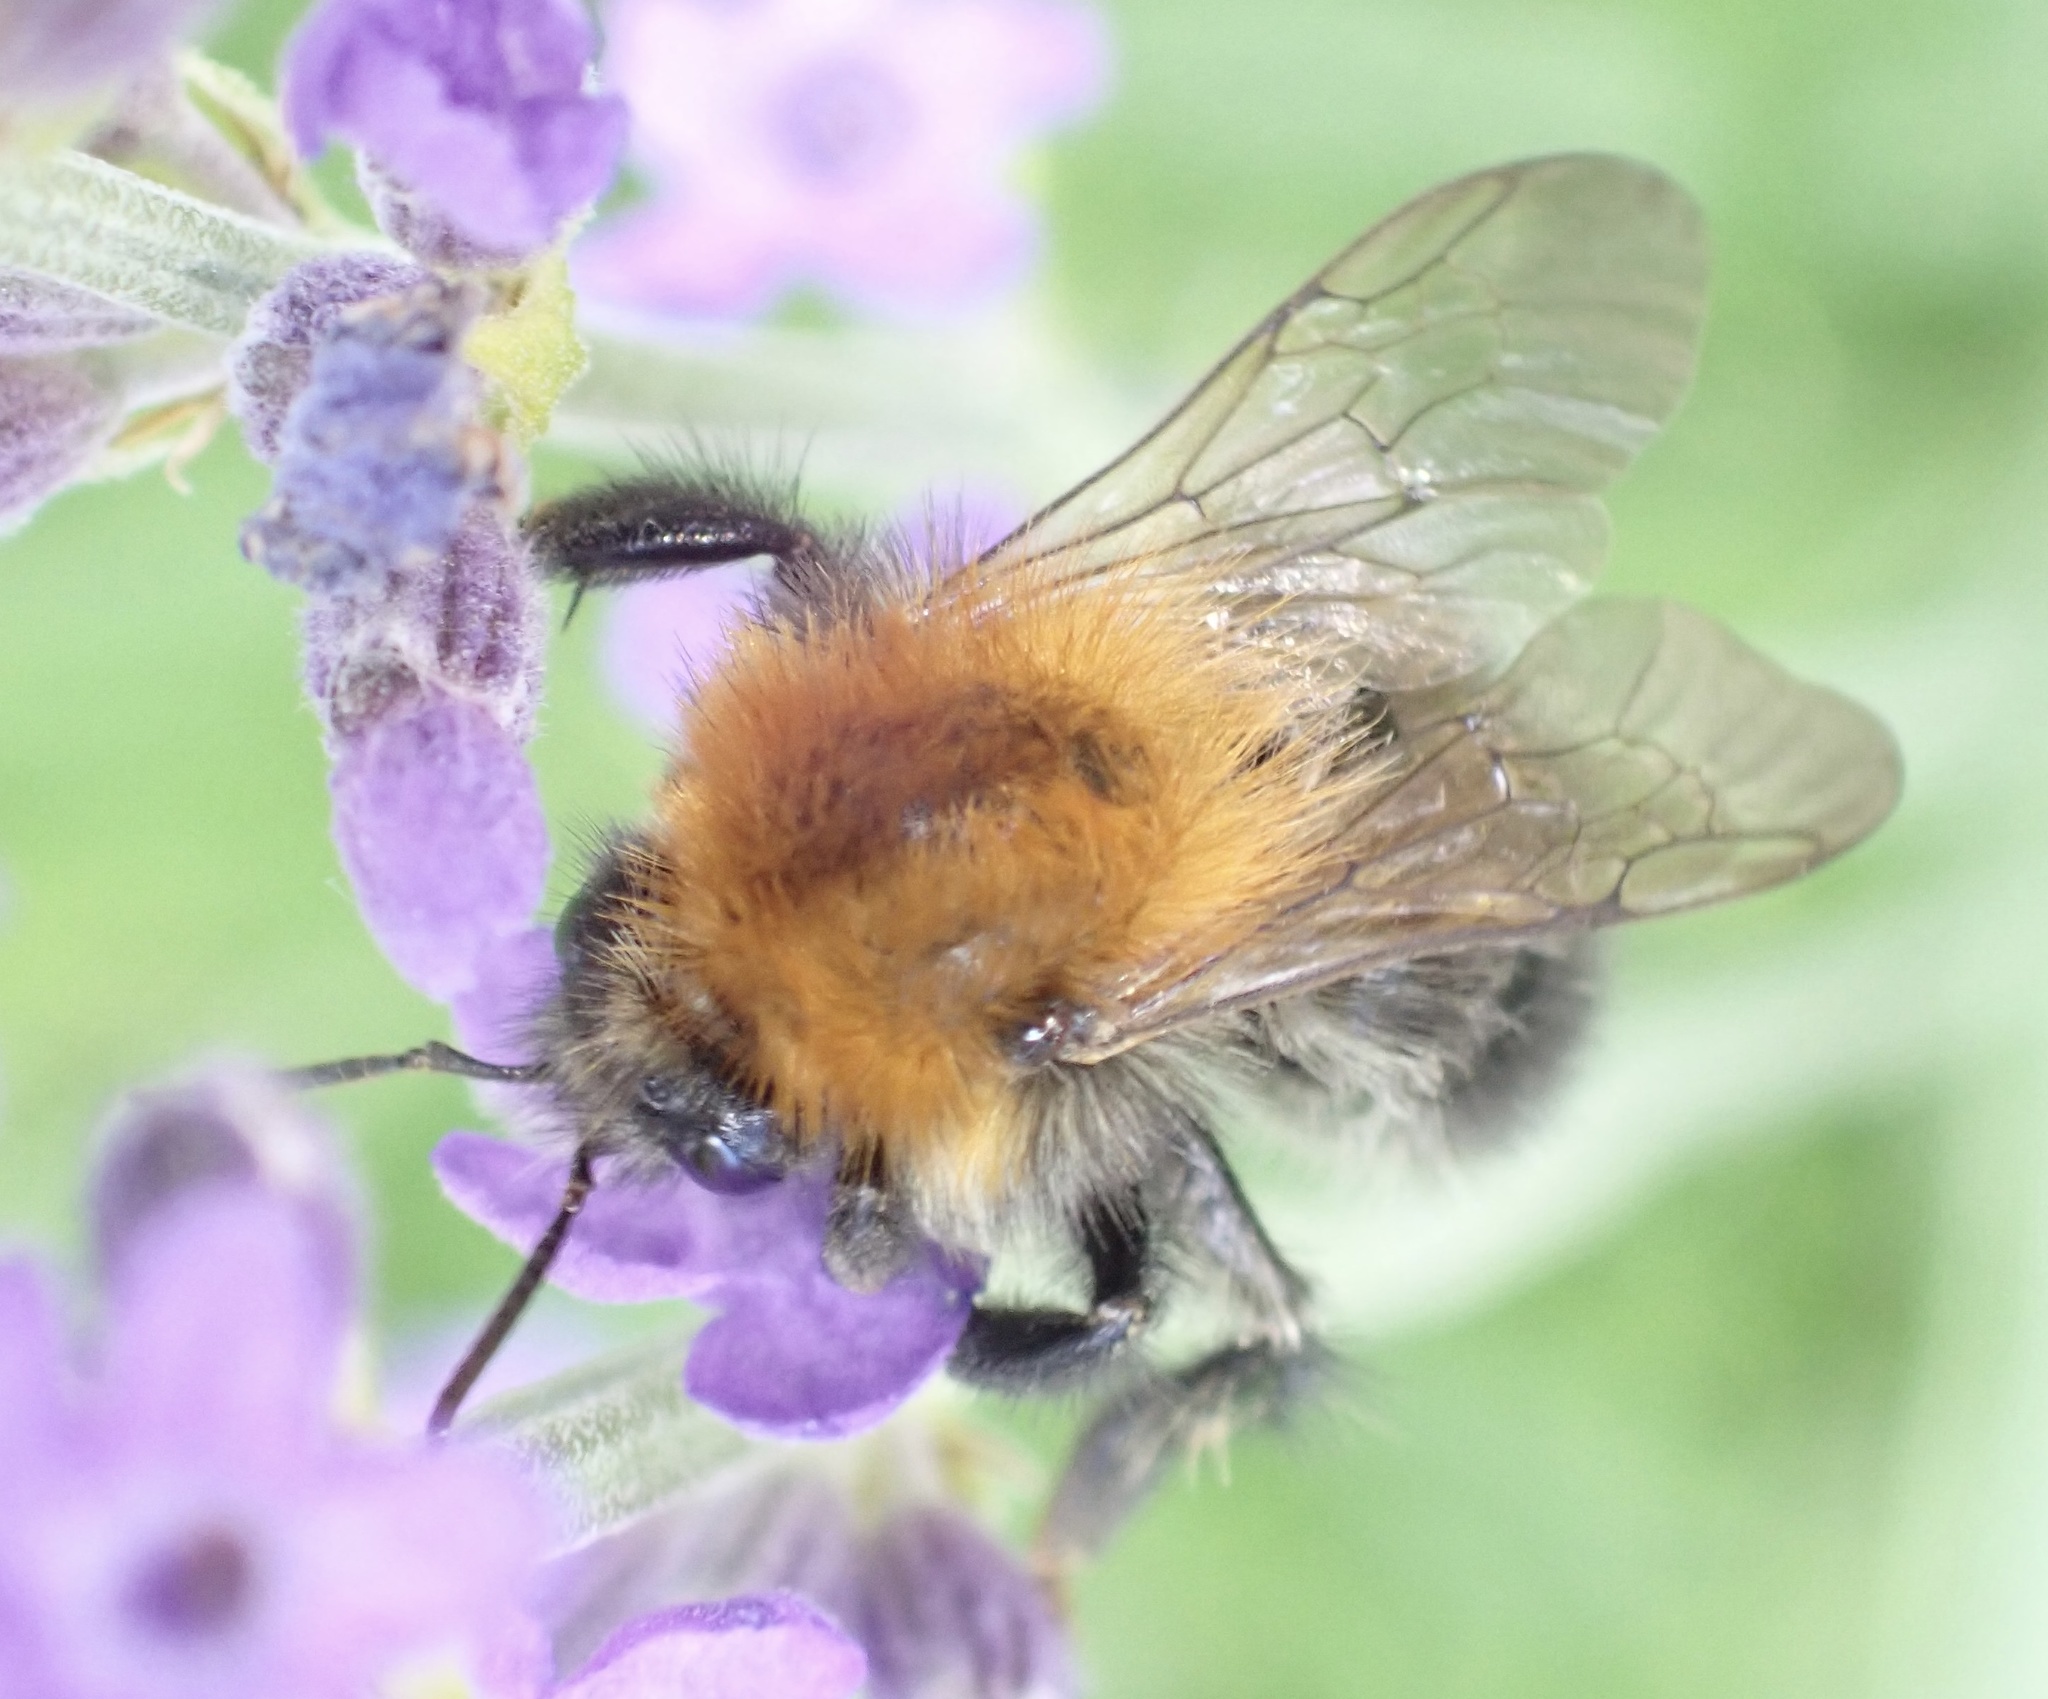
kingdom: Animalia
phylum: Arthropoda
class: Insecta
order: Hymenoptera
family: Apidae
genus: Bombus
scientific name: Bombus pascuorum
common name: Common carder bee
